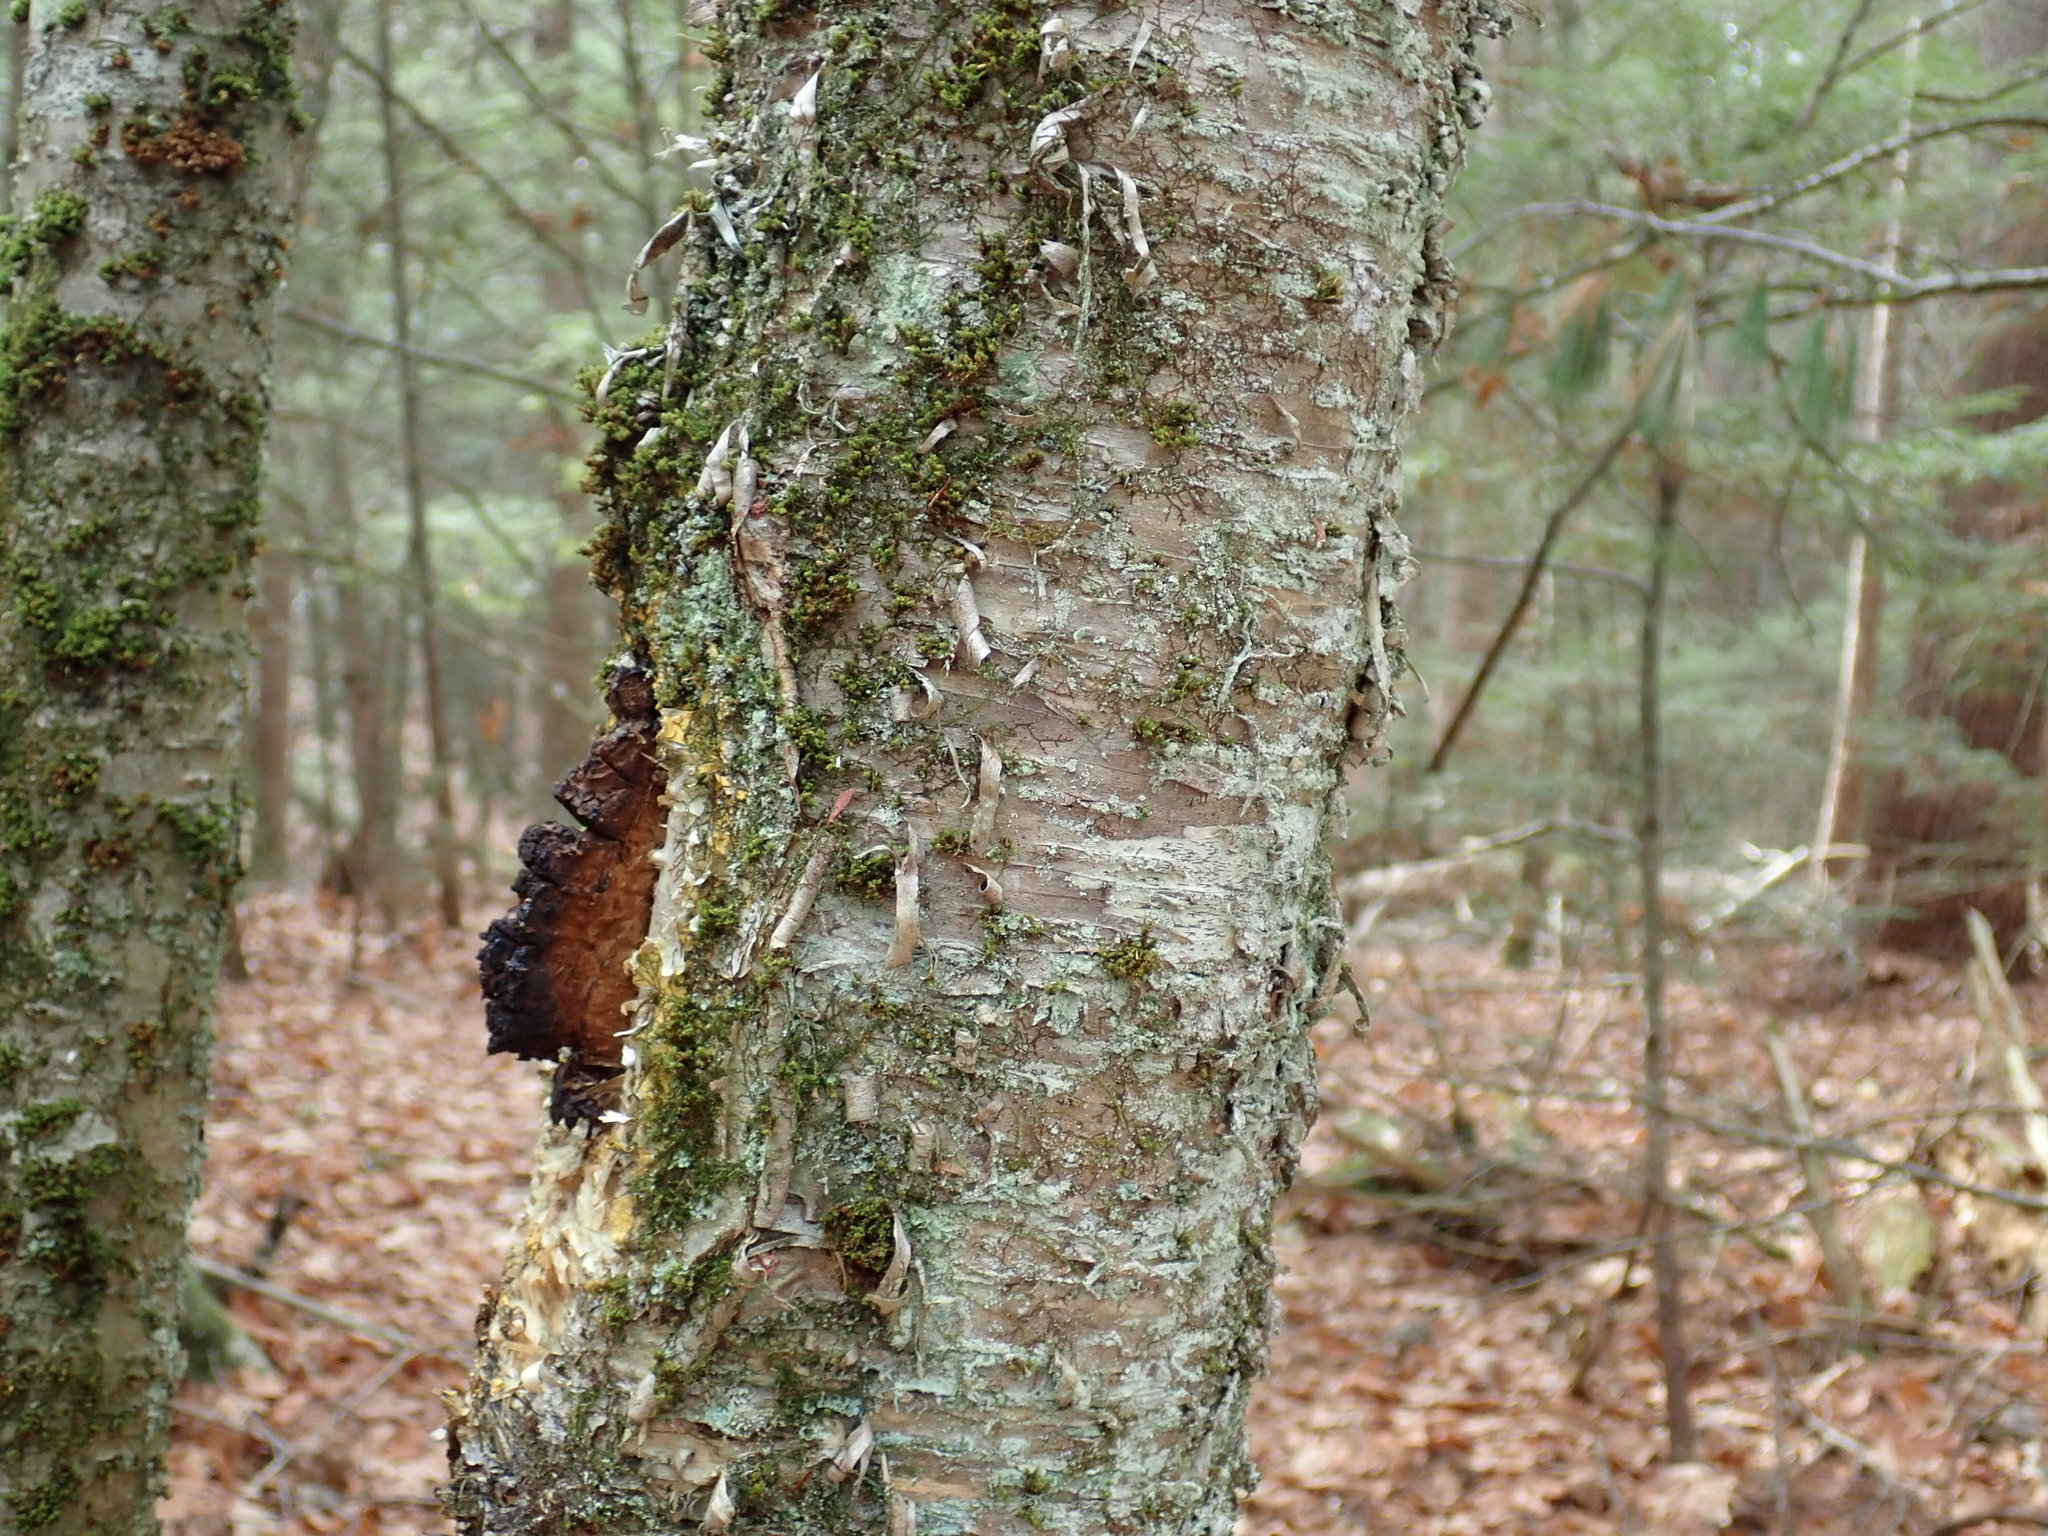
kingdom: Plantae
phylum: Tracheophyta
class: Magnoliopsida
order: Fagales
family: Betulaceae
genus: Betula
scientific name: Betula alleghaniensis
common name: Yellow birch
